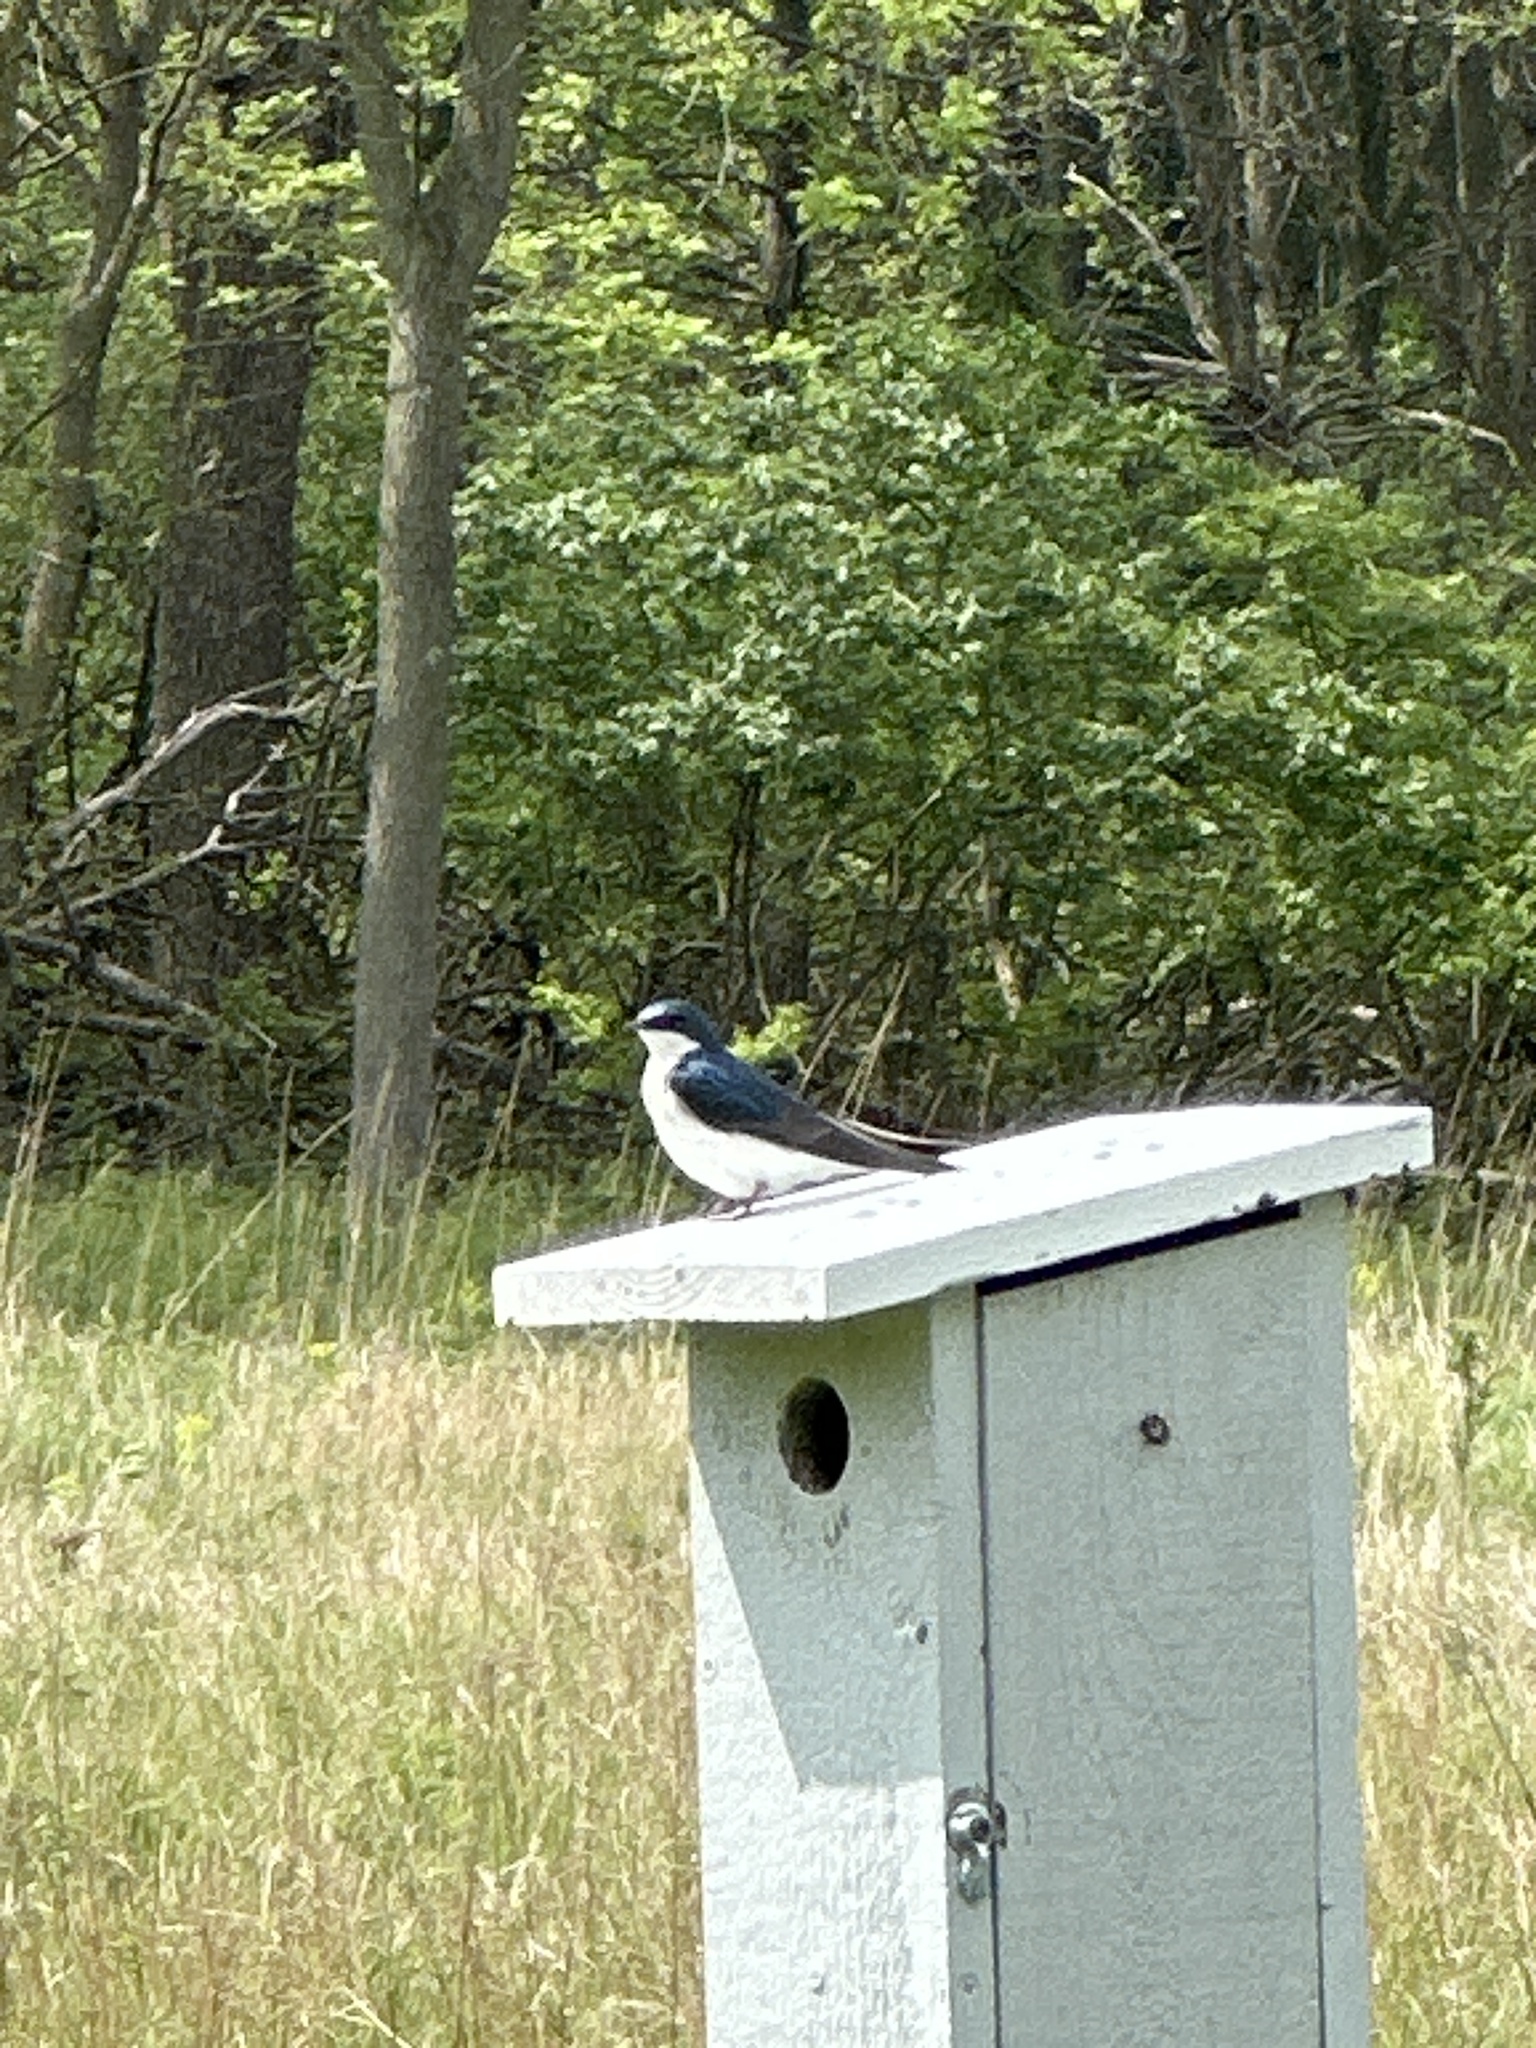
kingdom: Animalia
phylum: Chordata
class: Aves
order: Passeriformes
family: Hirundinidae
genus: Tachycineta
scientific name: Tachycineta bicolor
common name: Tree swallow
